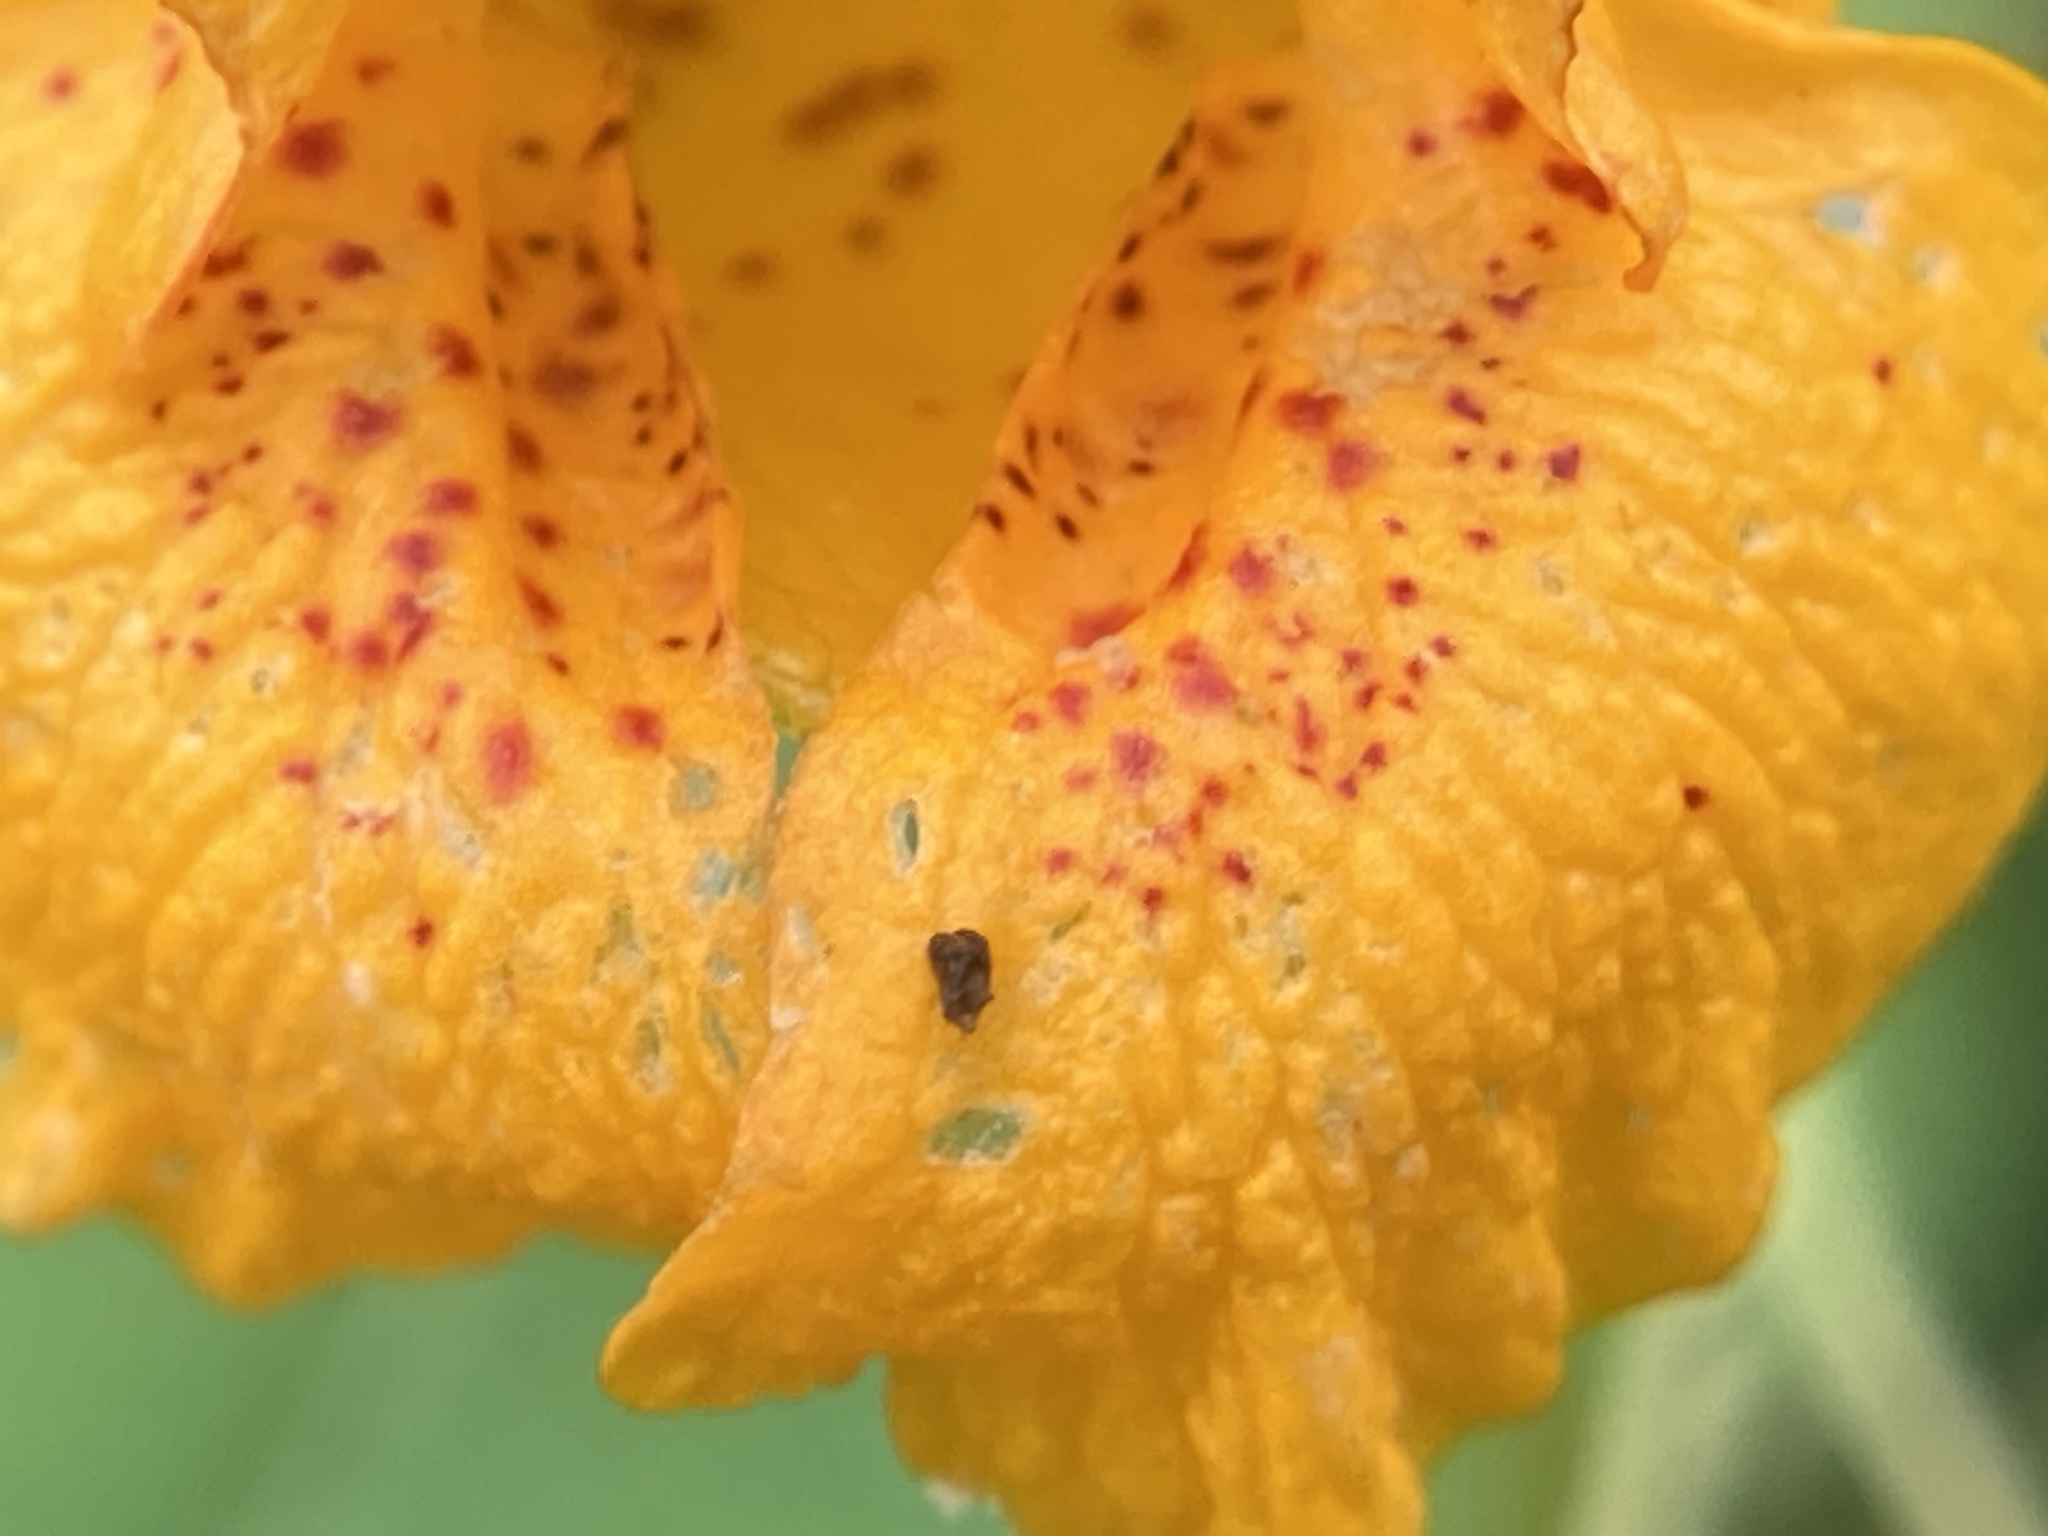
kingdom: Plantae
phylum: Tracheophyta
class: Magnoliopsida
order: Ericales
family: Balsaminaceae
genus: Impatiens
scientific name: Impatiens capensis
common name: Orange balsam
